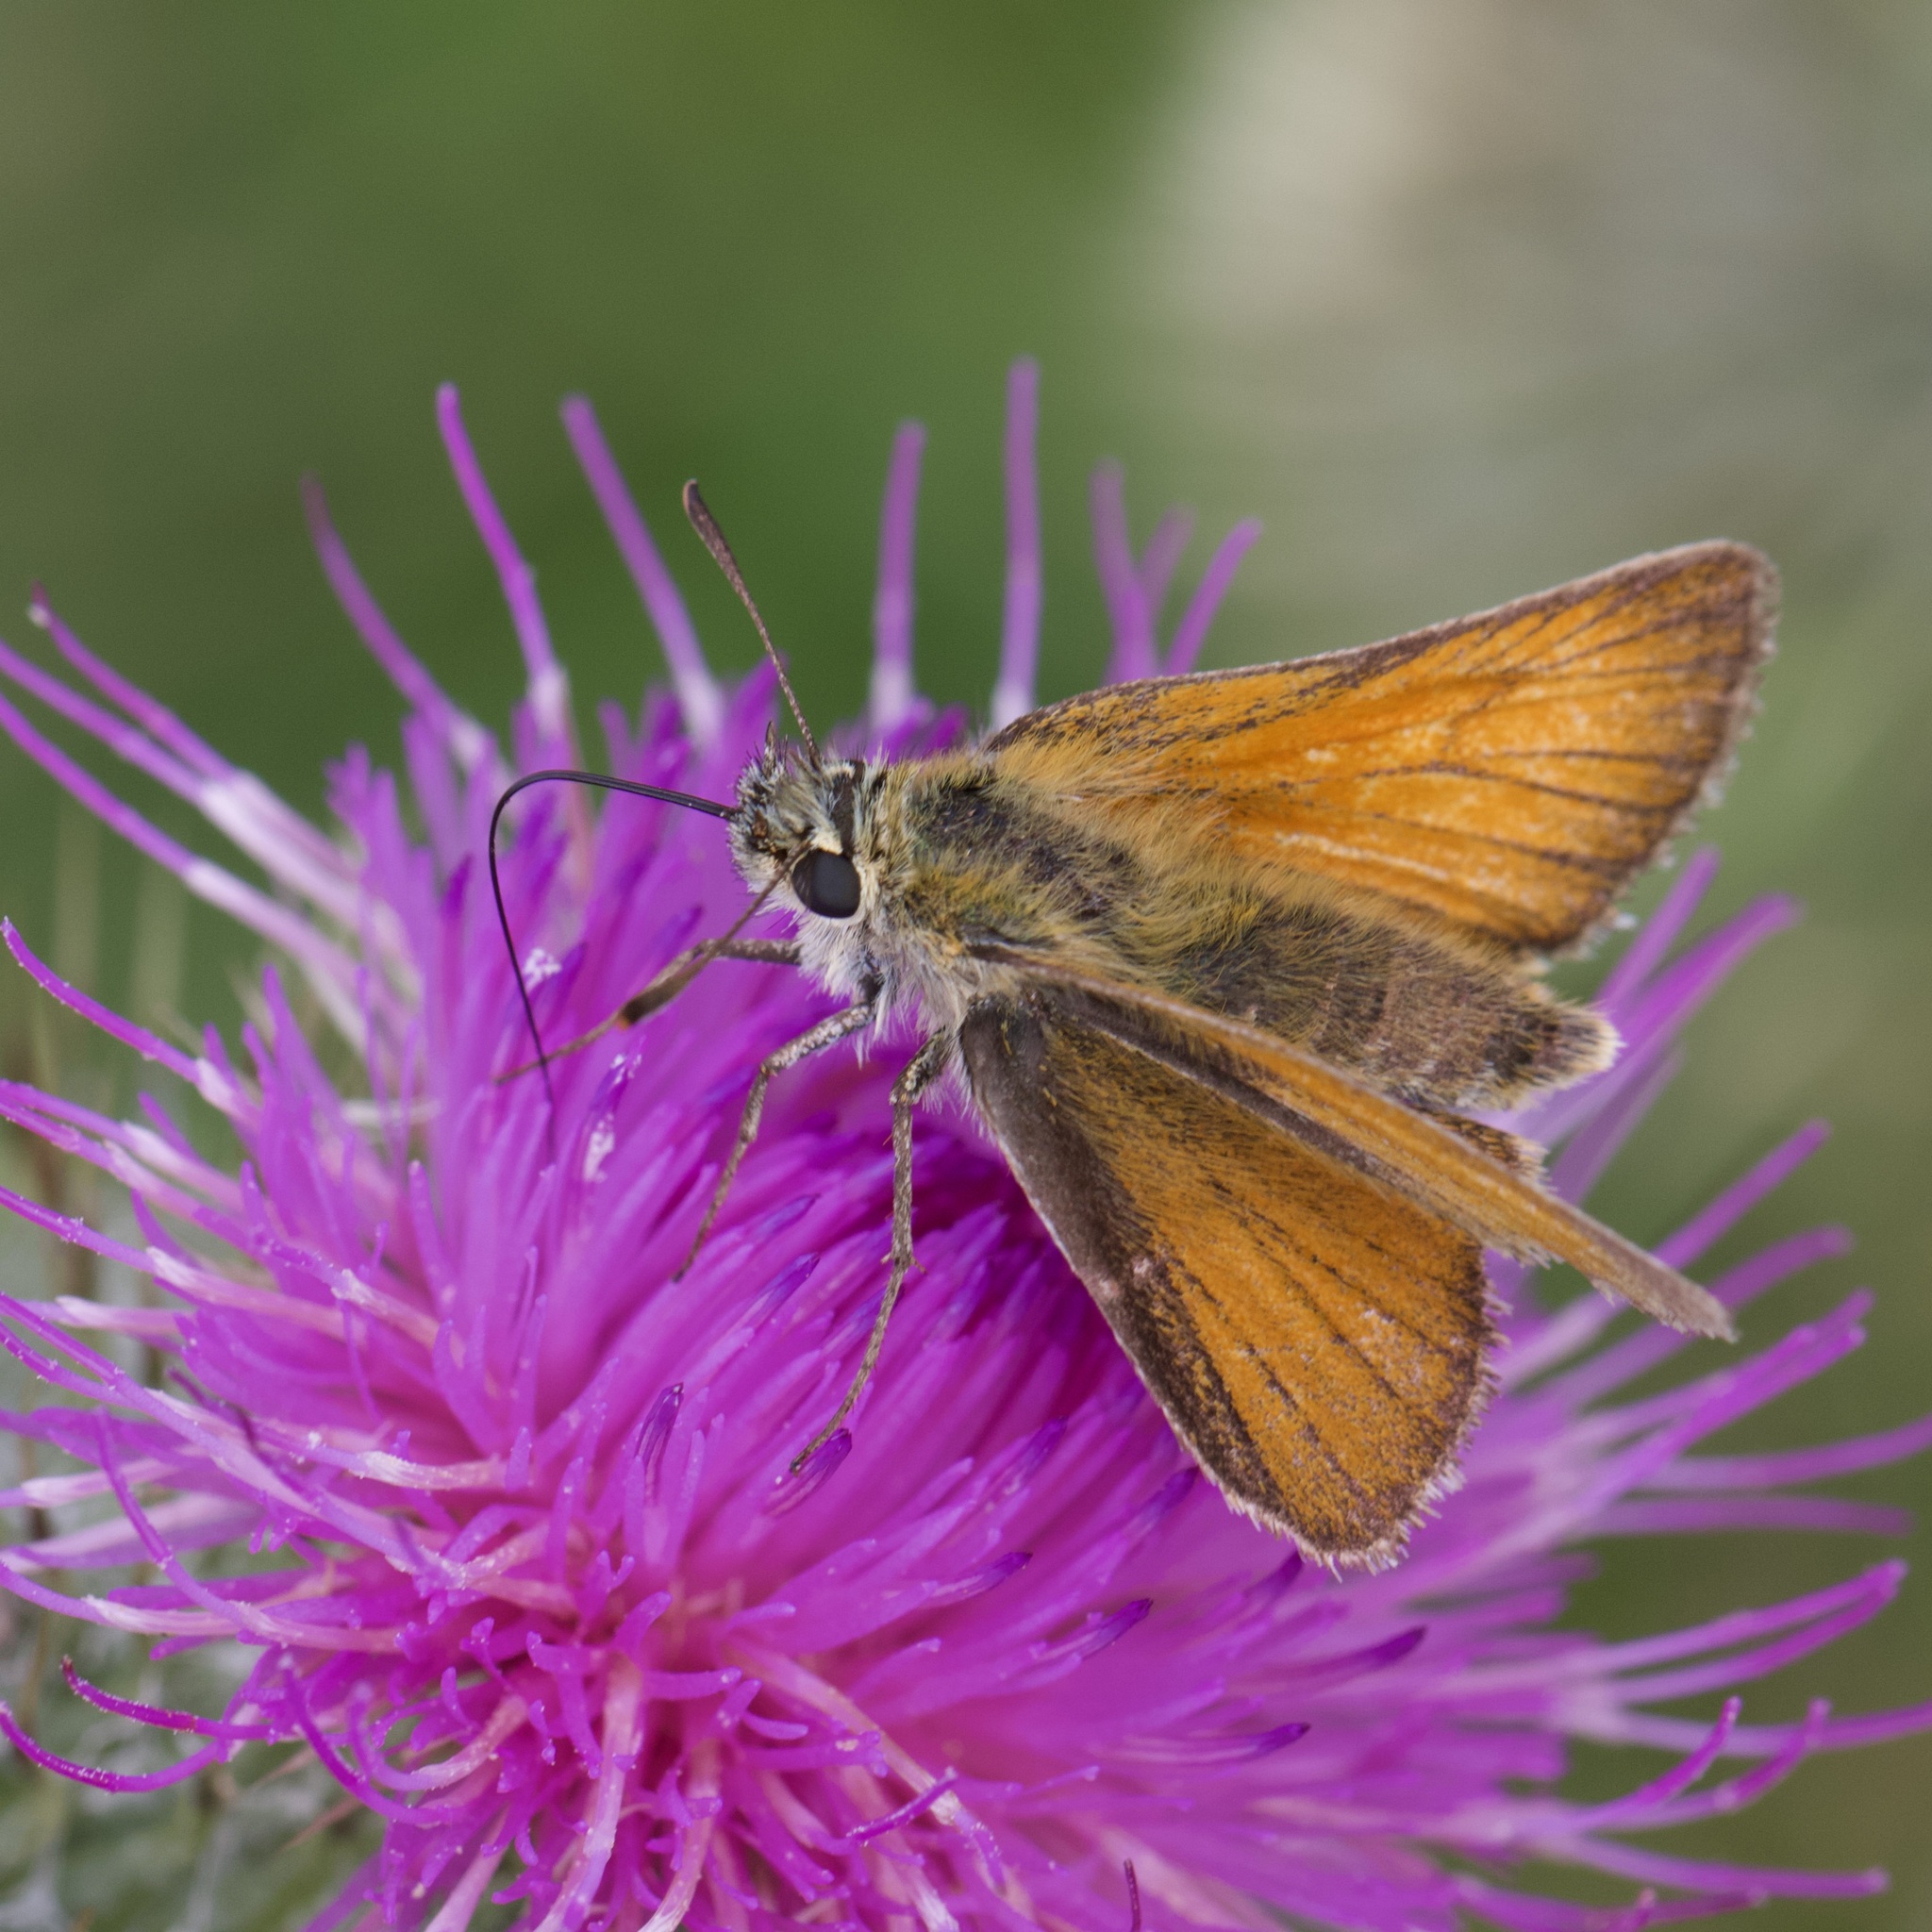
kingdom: Animalia
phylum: Arthropoda
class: Insecta
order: Lepidoptera
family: Hesperiidae
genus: Thymelicus
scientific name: Thymelicus sylvestris
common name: Small skipper
